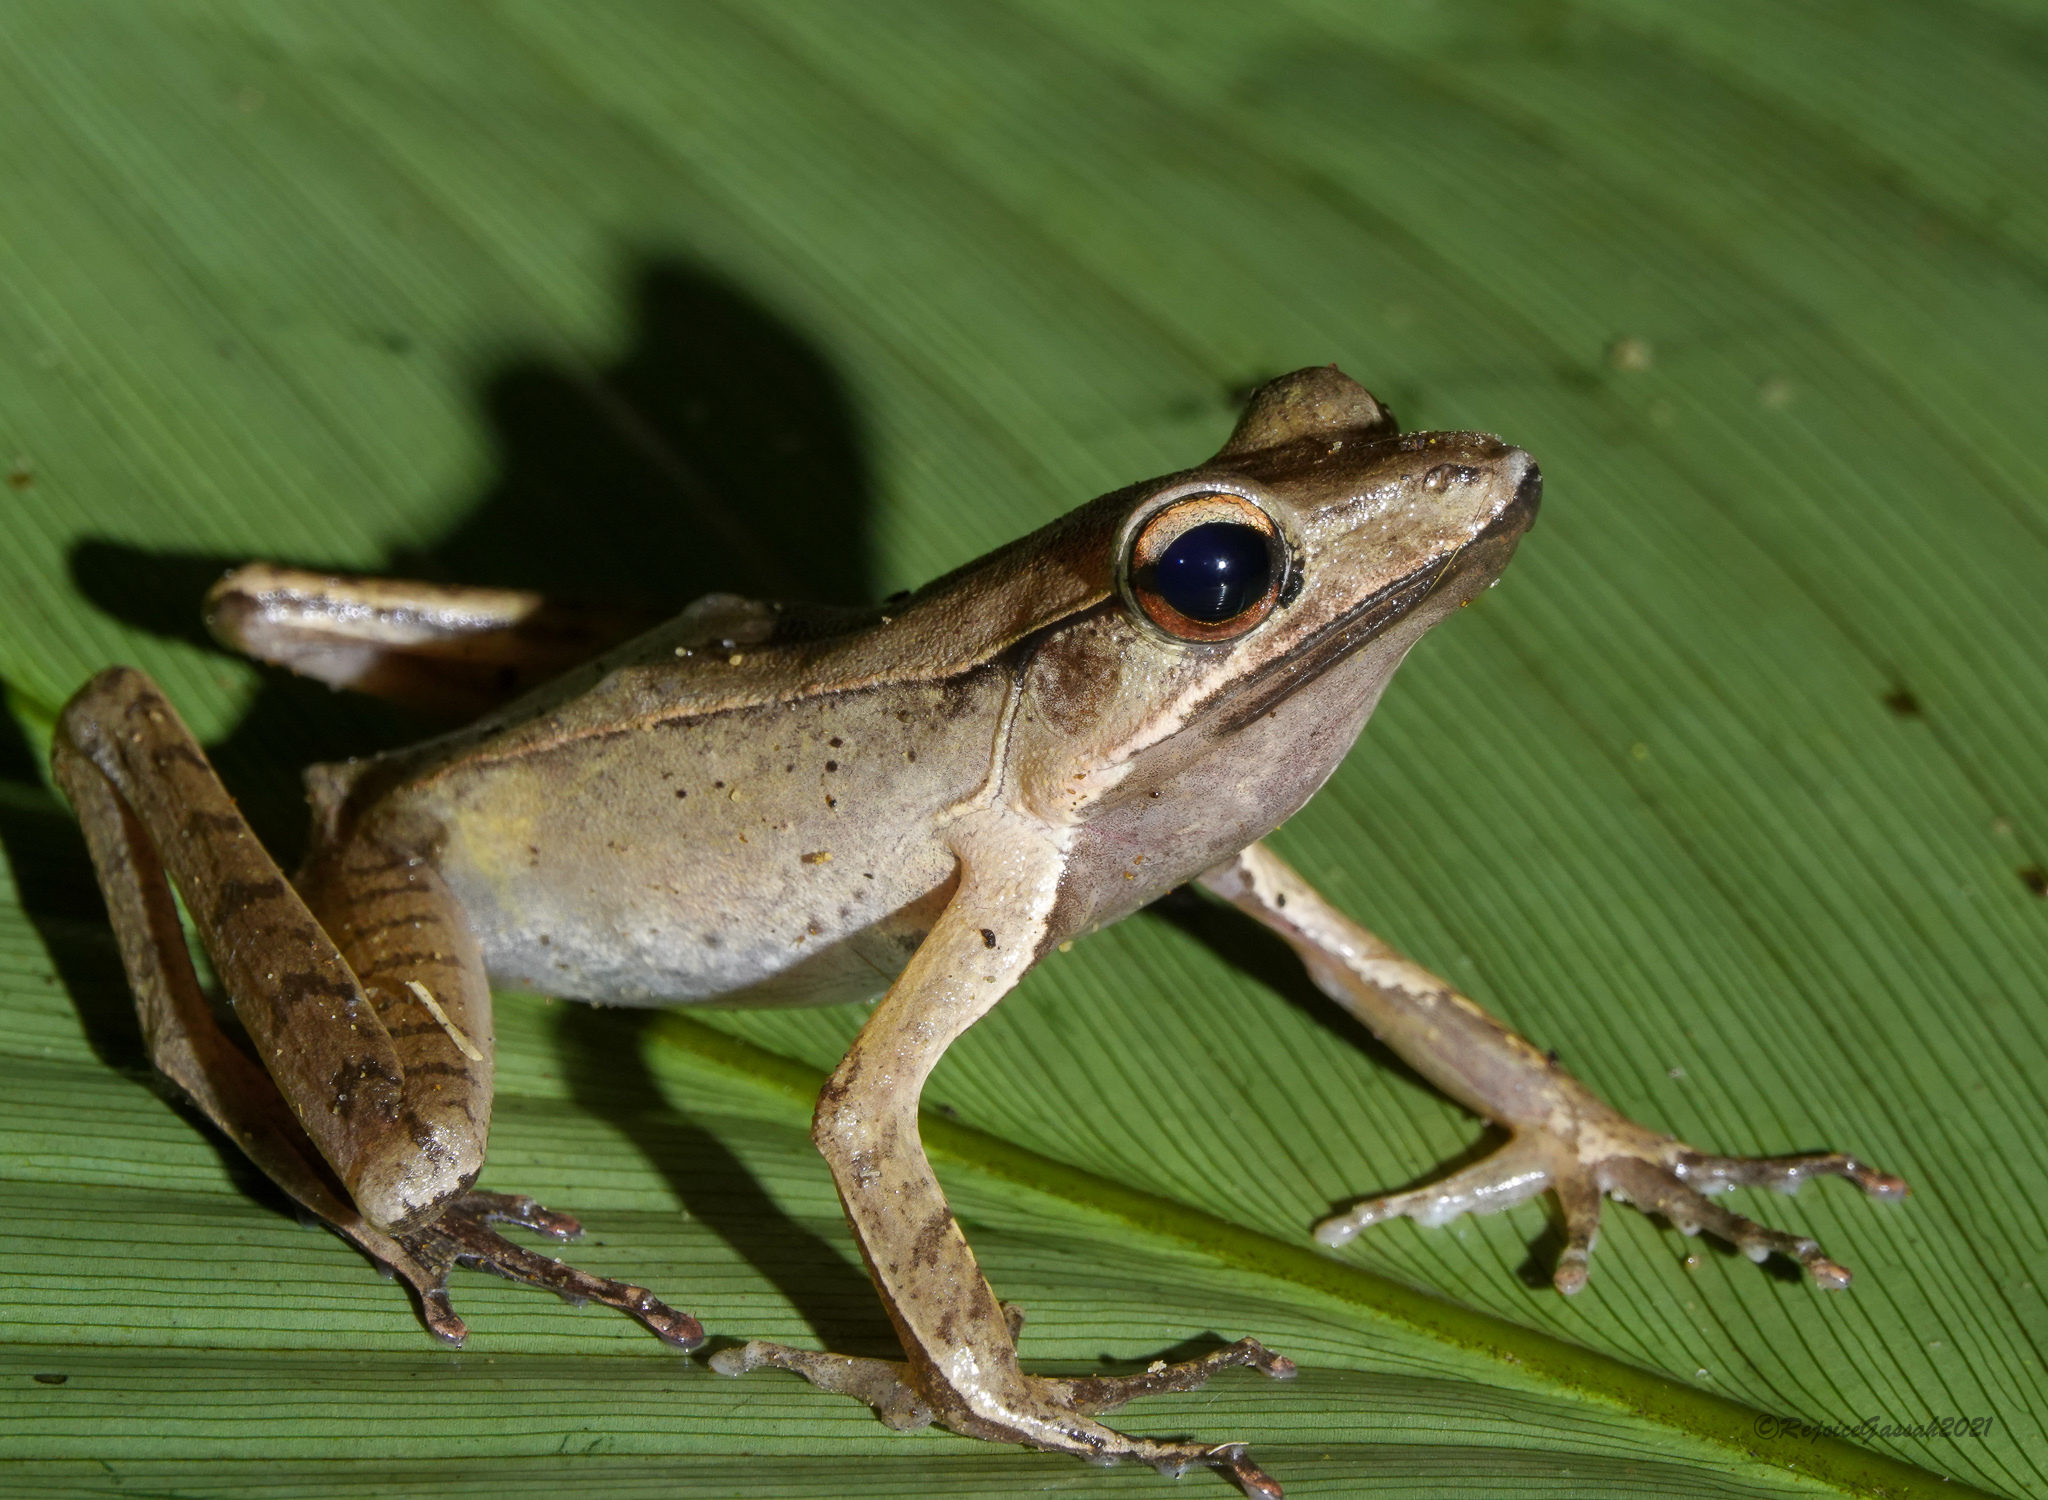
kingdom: Animalia
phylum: Chordata
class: Amphibia
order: Anura
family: Ranidae
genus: Clinotarsus
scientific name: Clinotarsus alticola
